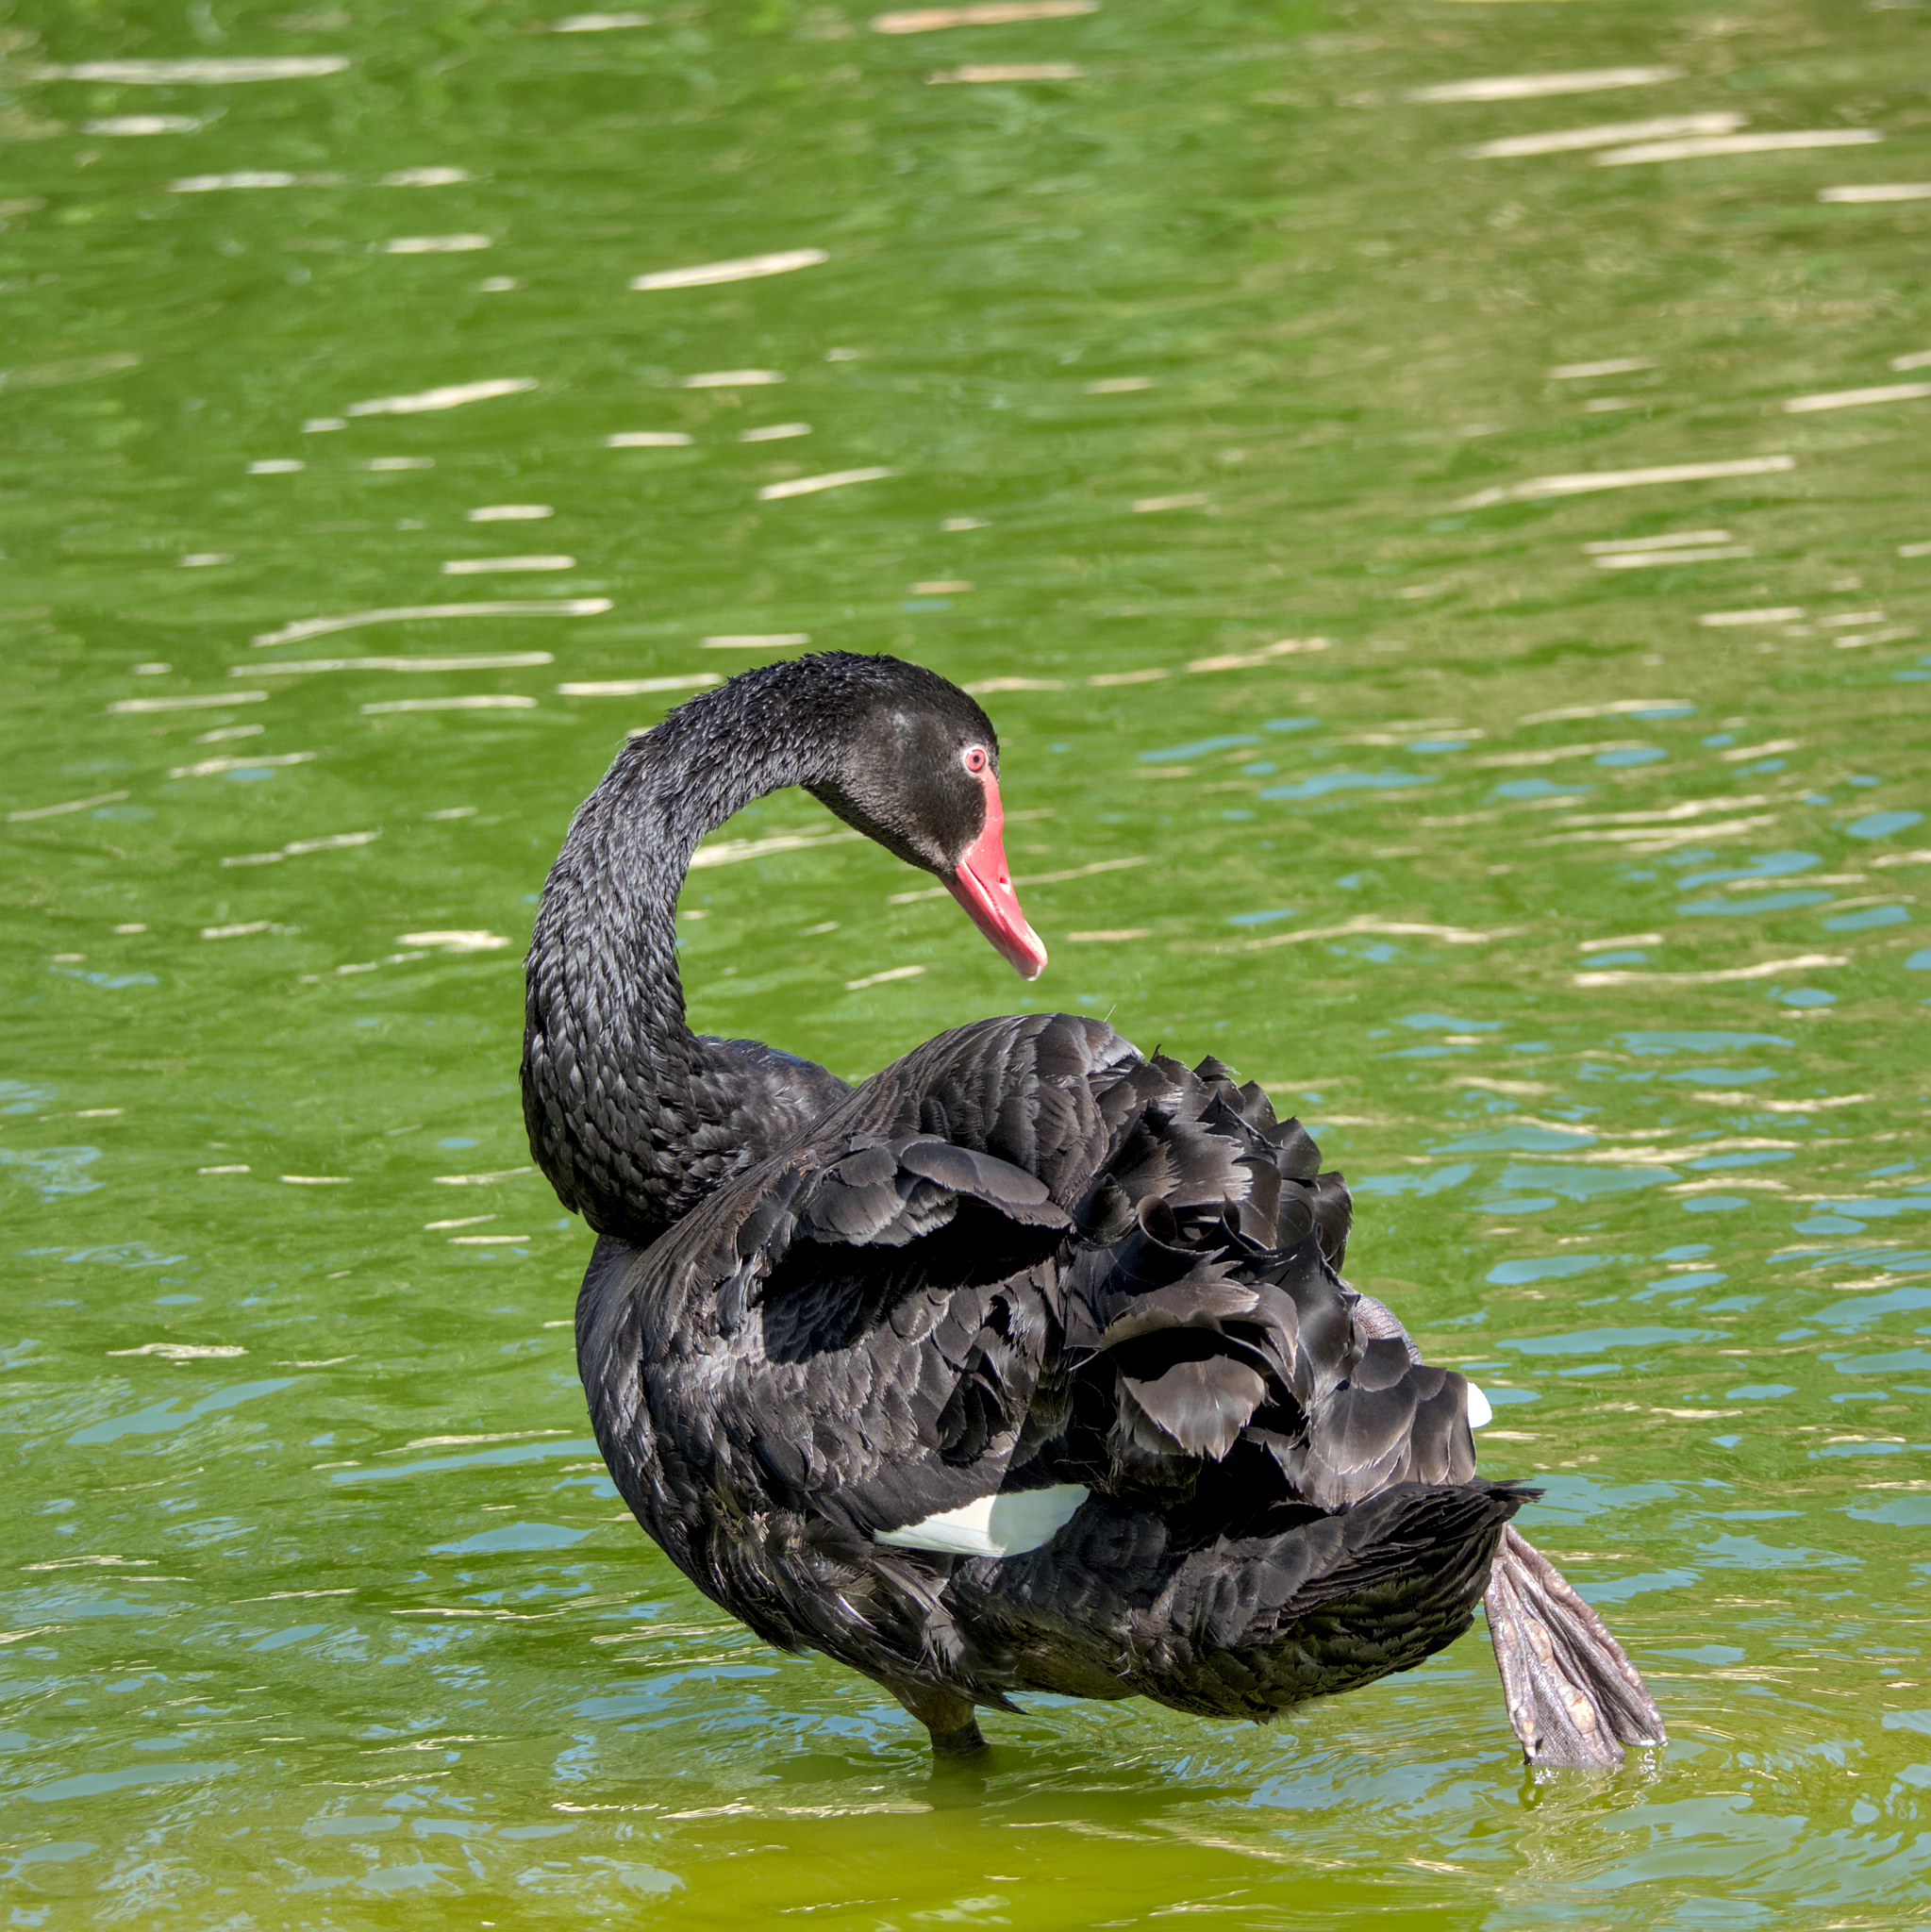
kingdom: Animalia
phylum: Chordata
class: Aves
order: Anseriformes
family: Anatidae
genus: Cygnus
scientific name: Cygnus atratus
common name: Black swan
